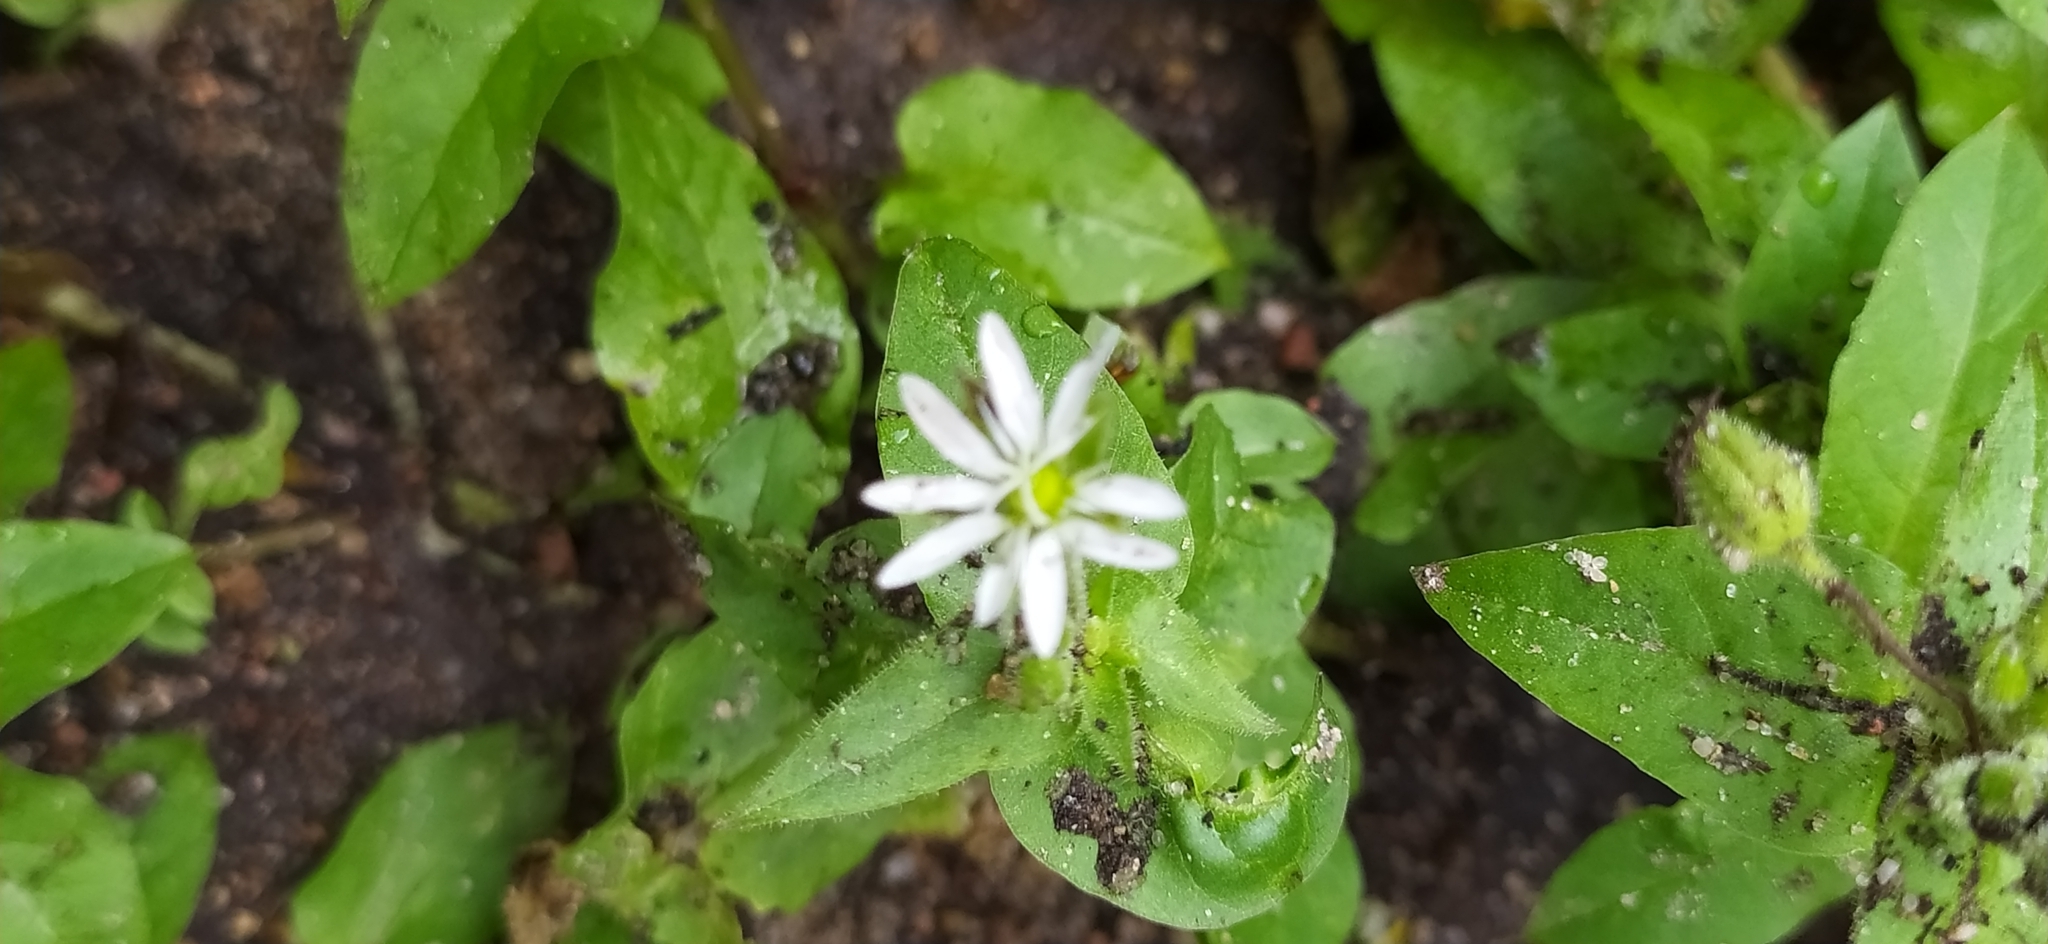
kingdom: Plantae
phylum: Tracheophyta
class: Magnoliopsida
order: Caryophyllales
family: Caryophyllaceae
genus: Stellaria
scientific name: Stellaria aquatica
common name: Water chickweed
